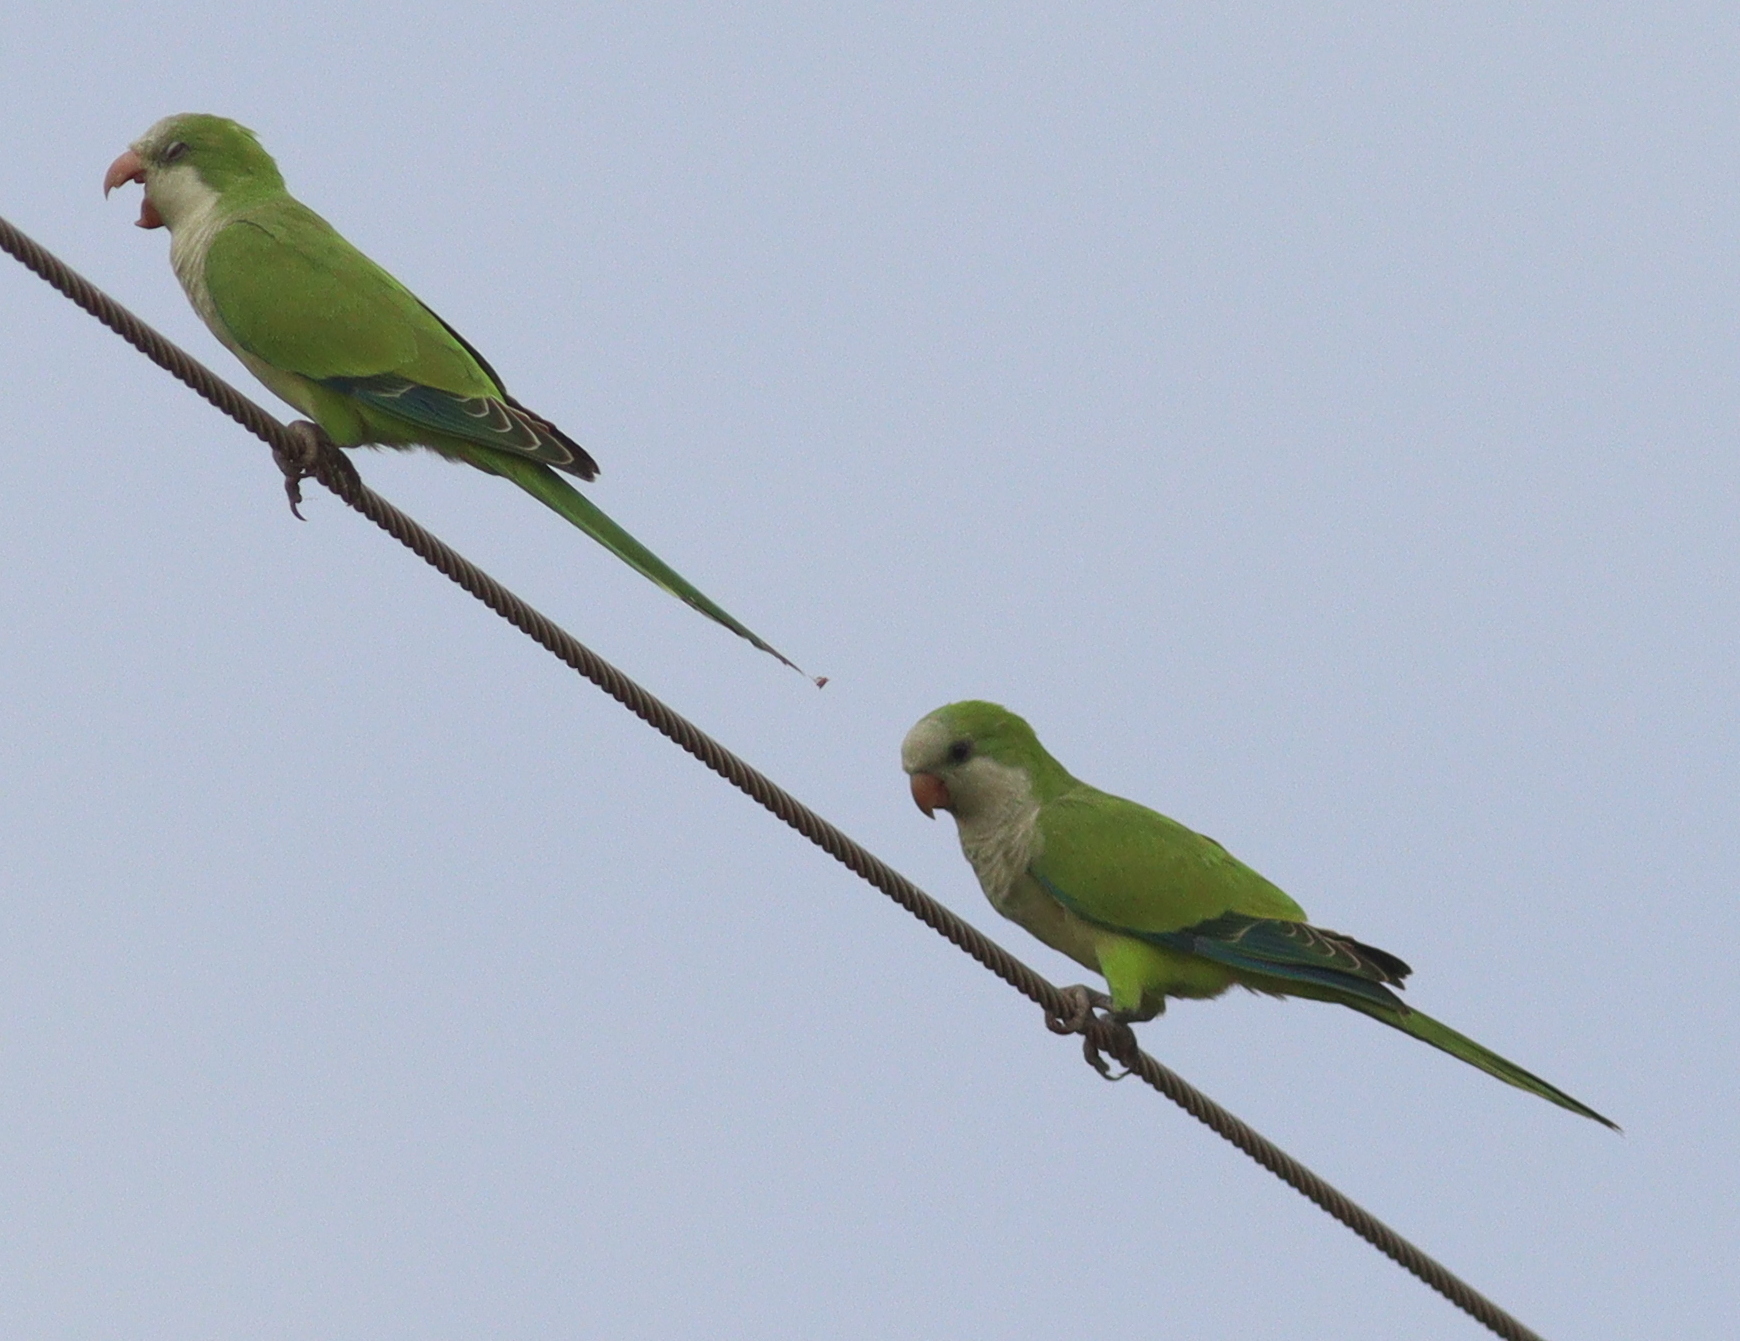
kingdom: Animalia
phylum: Chordata
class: Aves
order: Psittaciformes
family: Psittacidae
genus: Myiopsitta
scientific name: Myiopsitta monachus
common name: Monk parakeet
